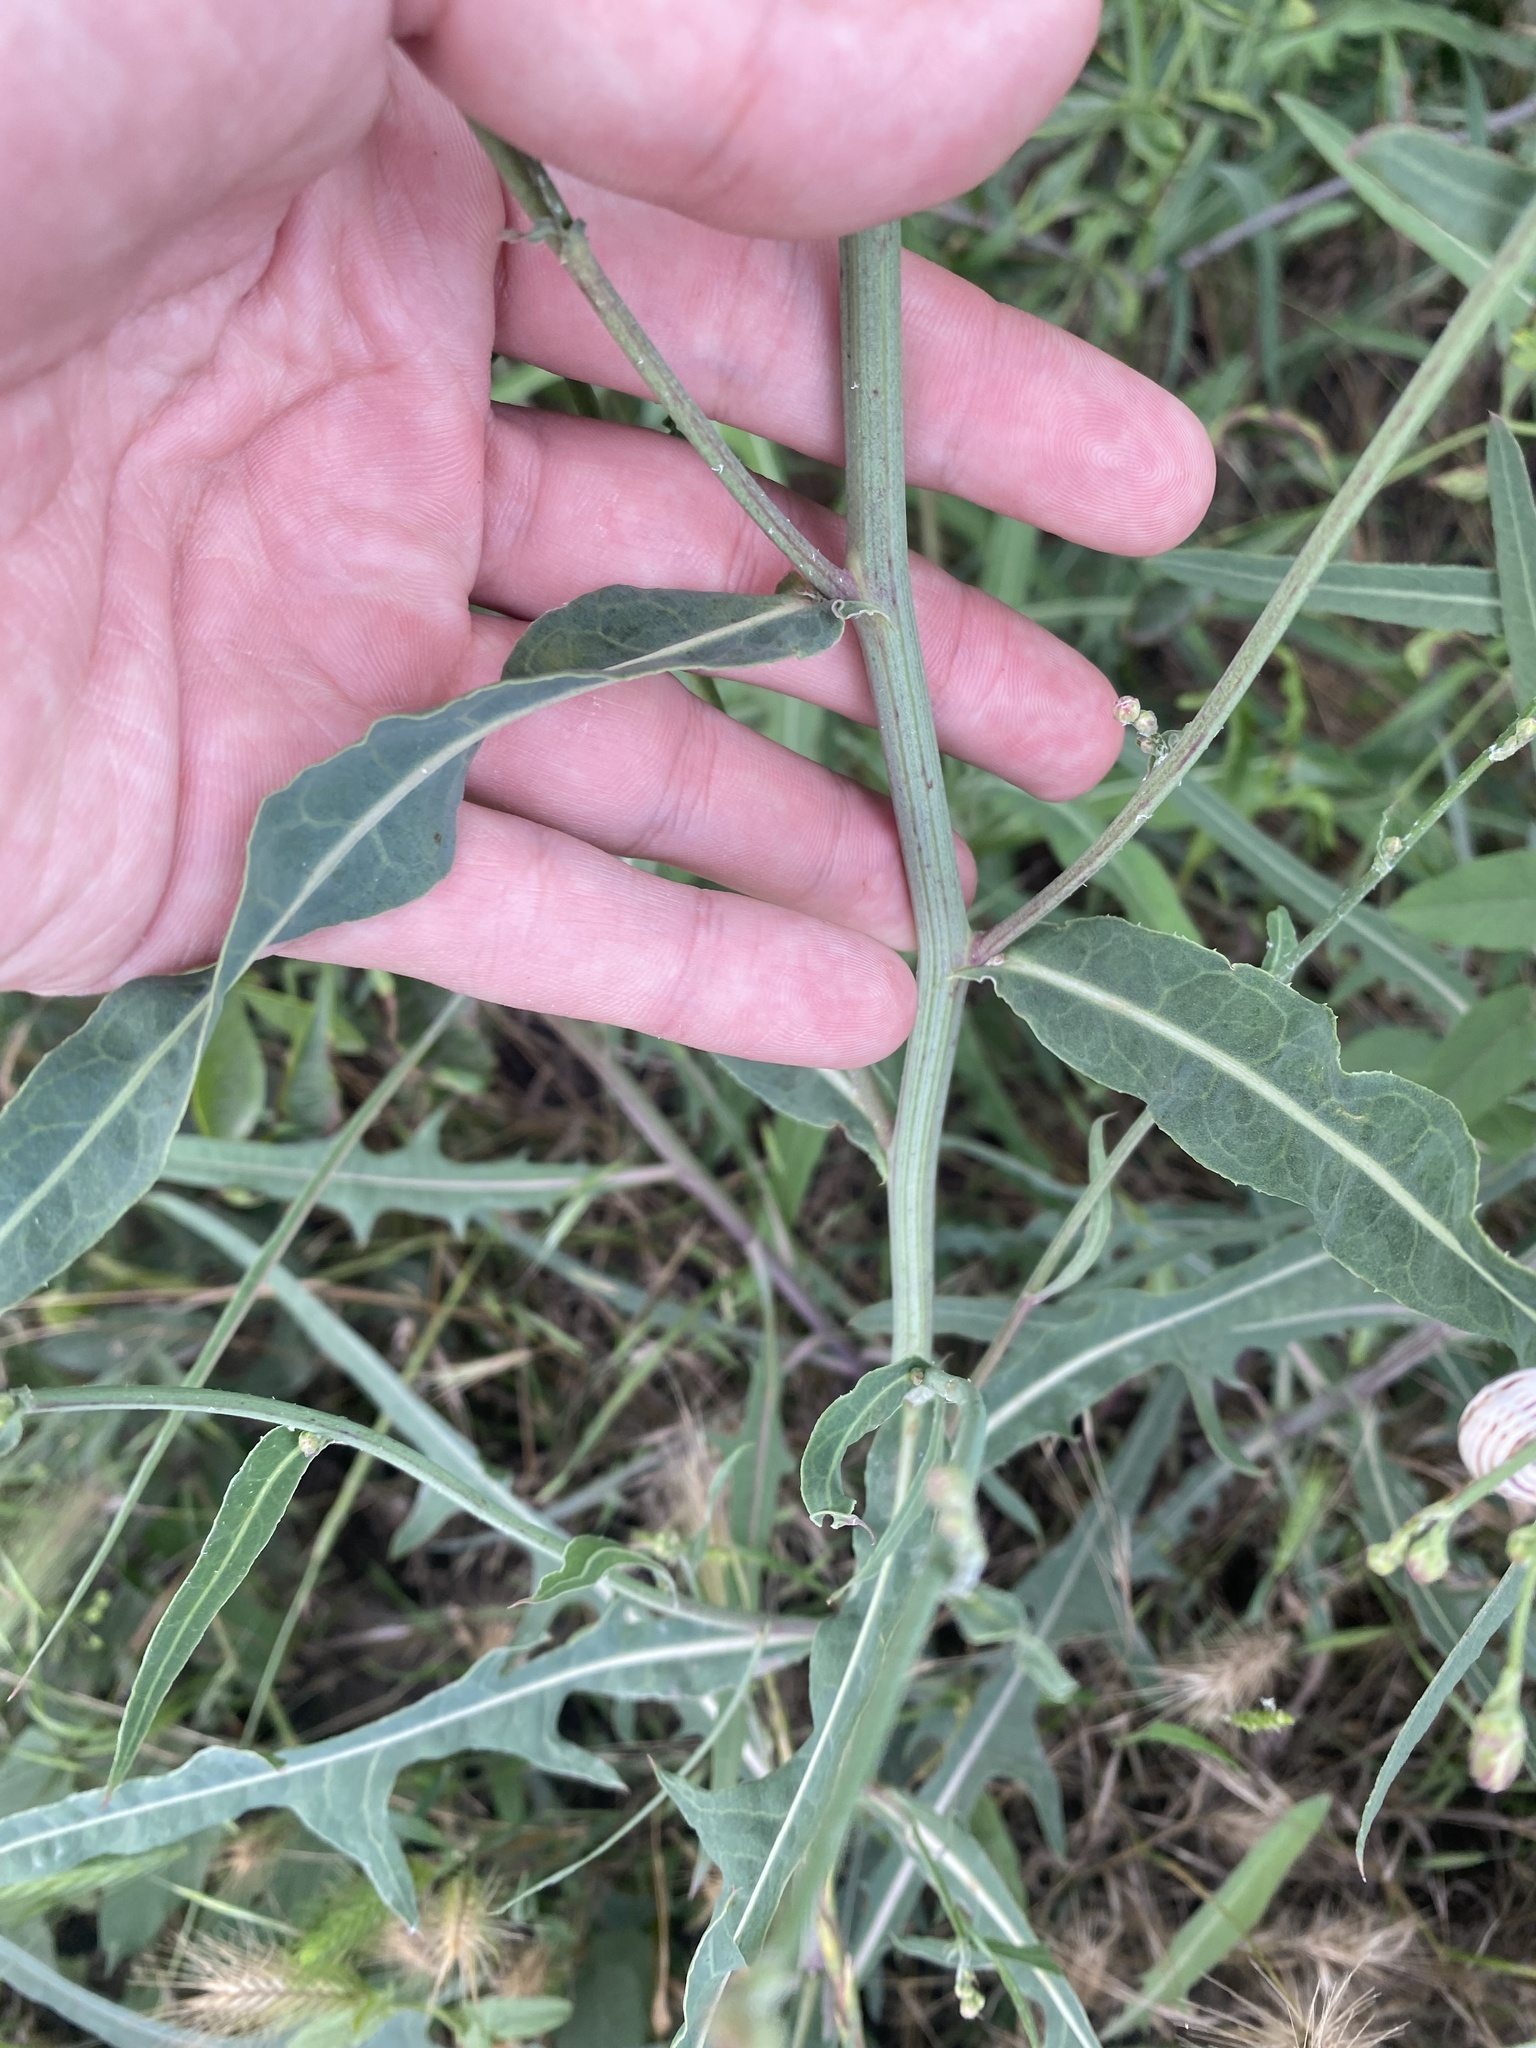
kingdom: Plantae
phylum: Tracheophyta
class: Magnoliopsida
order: Asterales
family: Asteraceae
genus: Lactuca
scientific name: Lactuca tatarica
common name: Blue lettuce
